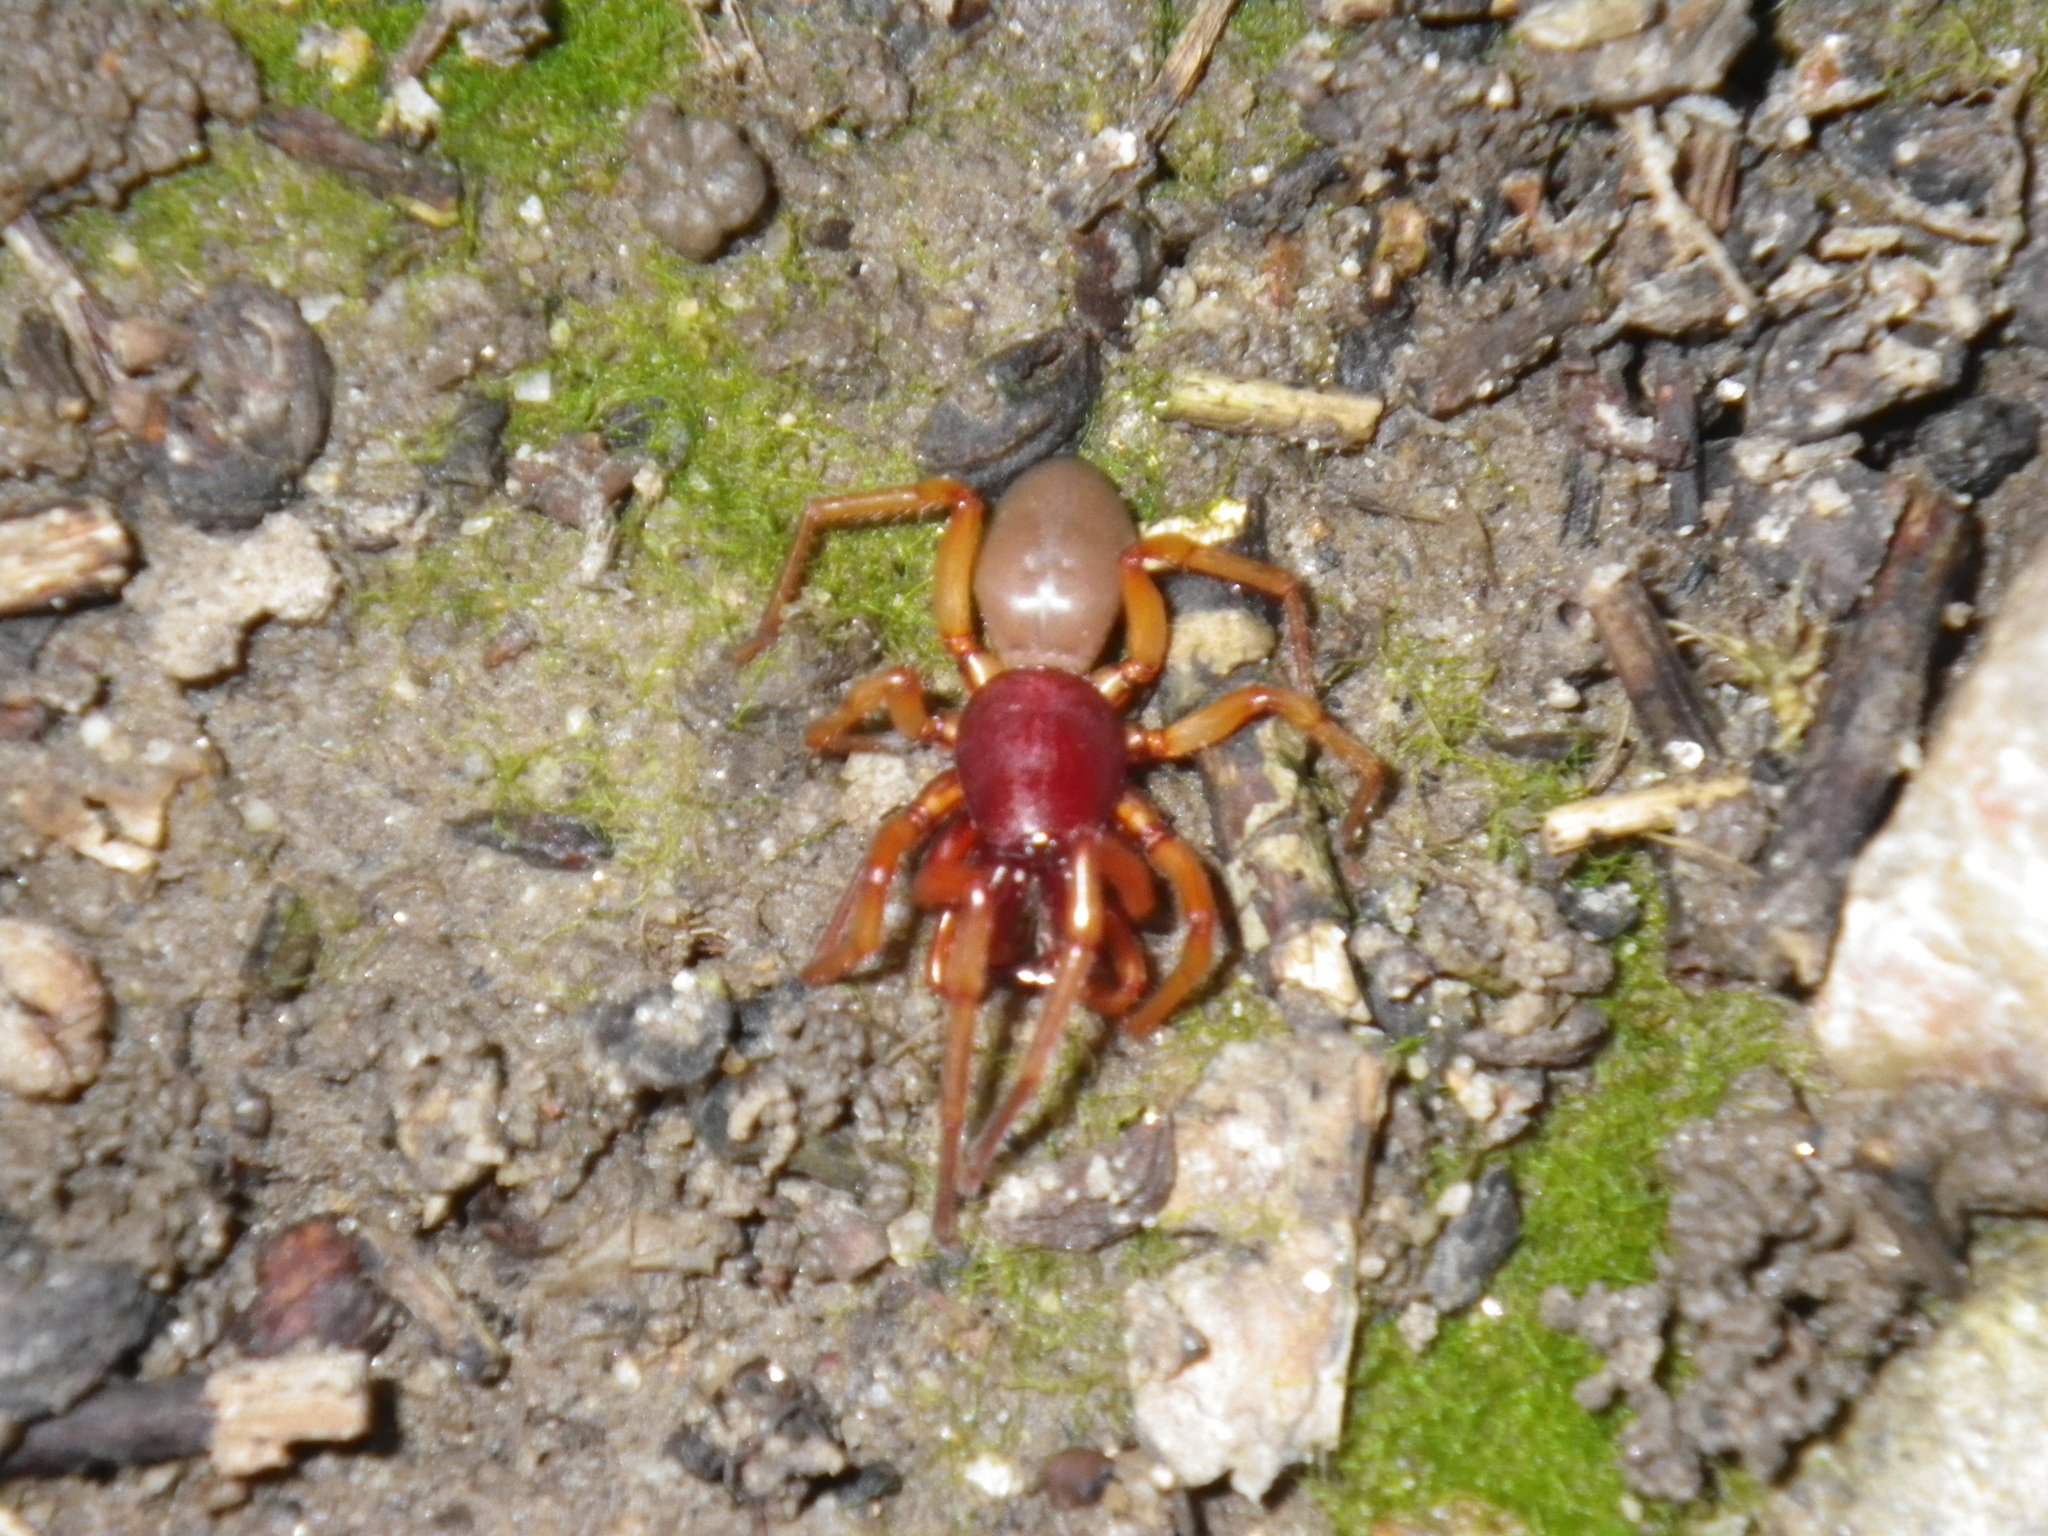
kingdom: Animalia
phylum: Arthropoda
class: Arachnida
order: Araneae
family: Dysderidae
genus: Dysdera
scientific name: Dysdera crocata
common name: Woodlouse spider
